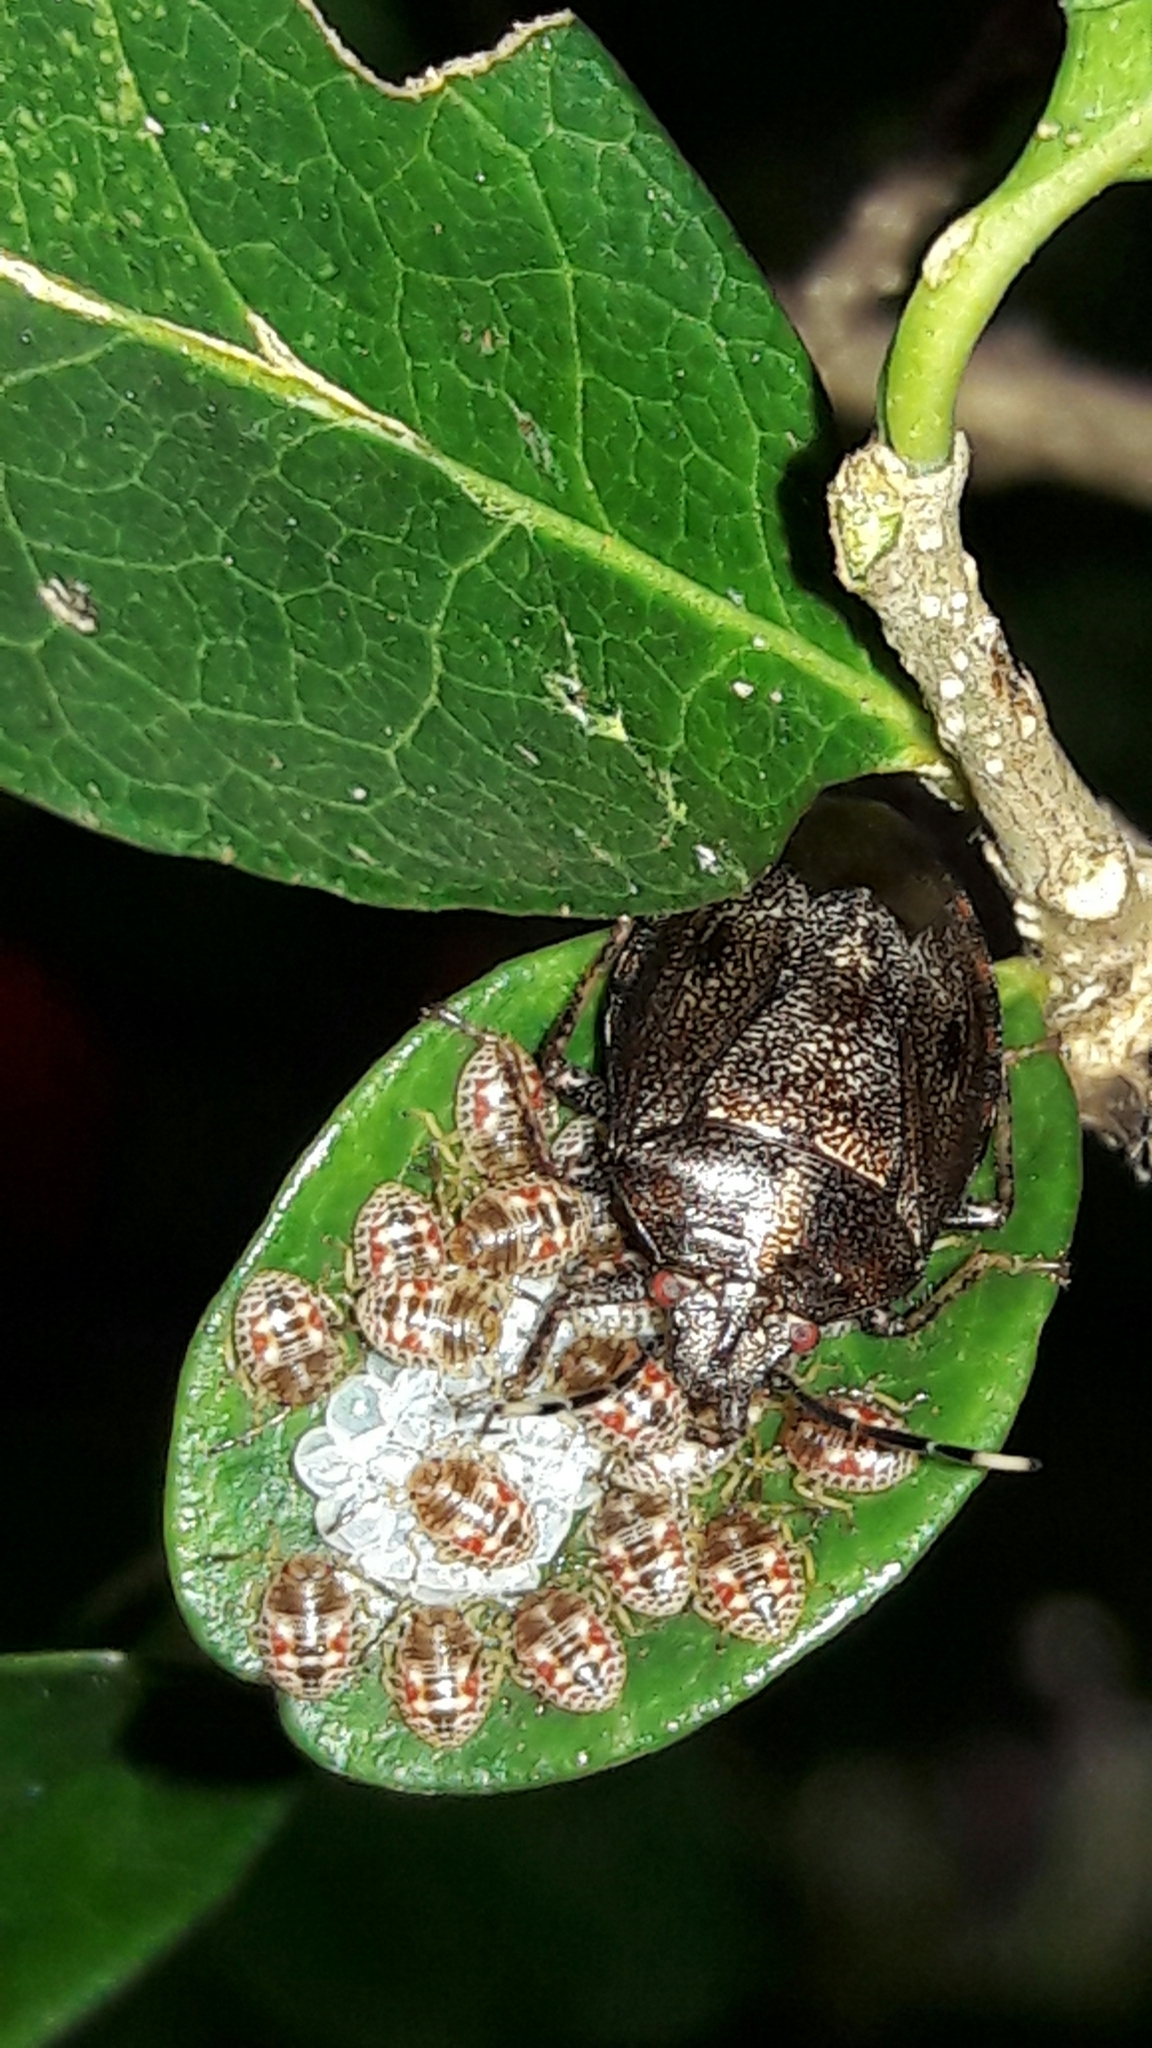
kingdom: Animalia
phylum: Arthropoda
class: Insecta
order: Hemiptera
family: Pentatomidae
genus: Antiteuchus
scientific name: Antiteuchus tripterus
